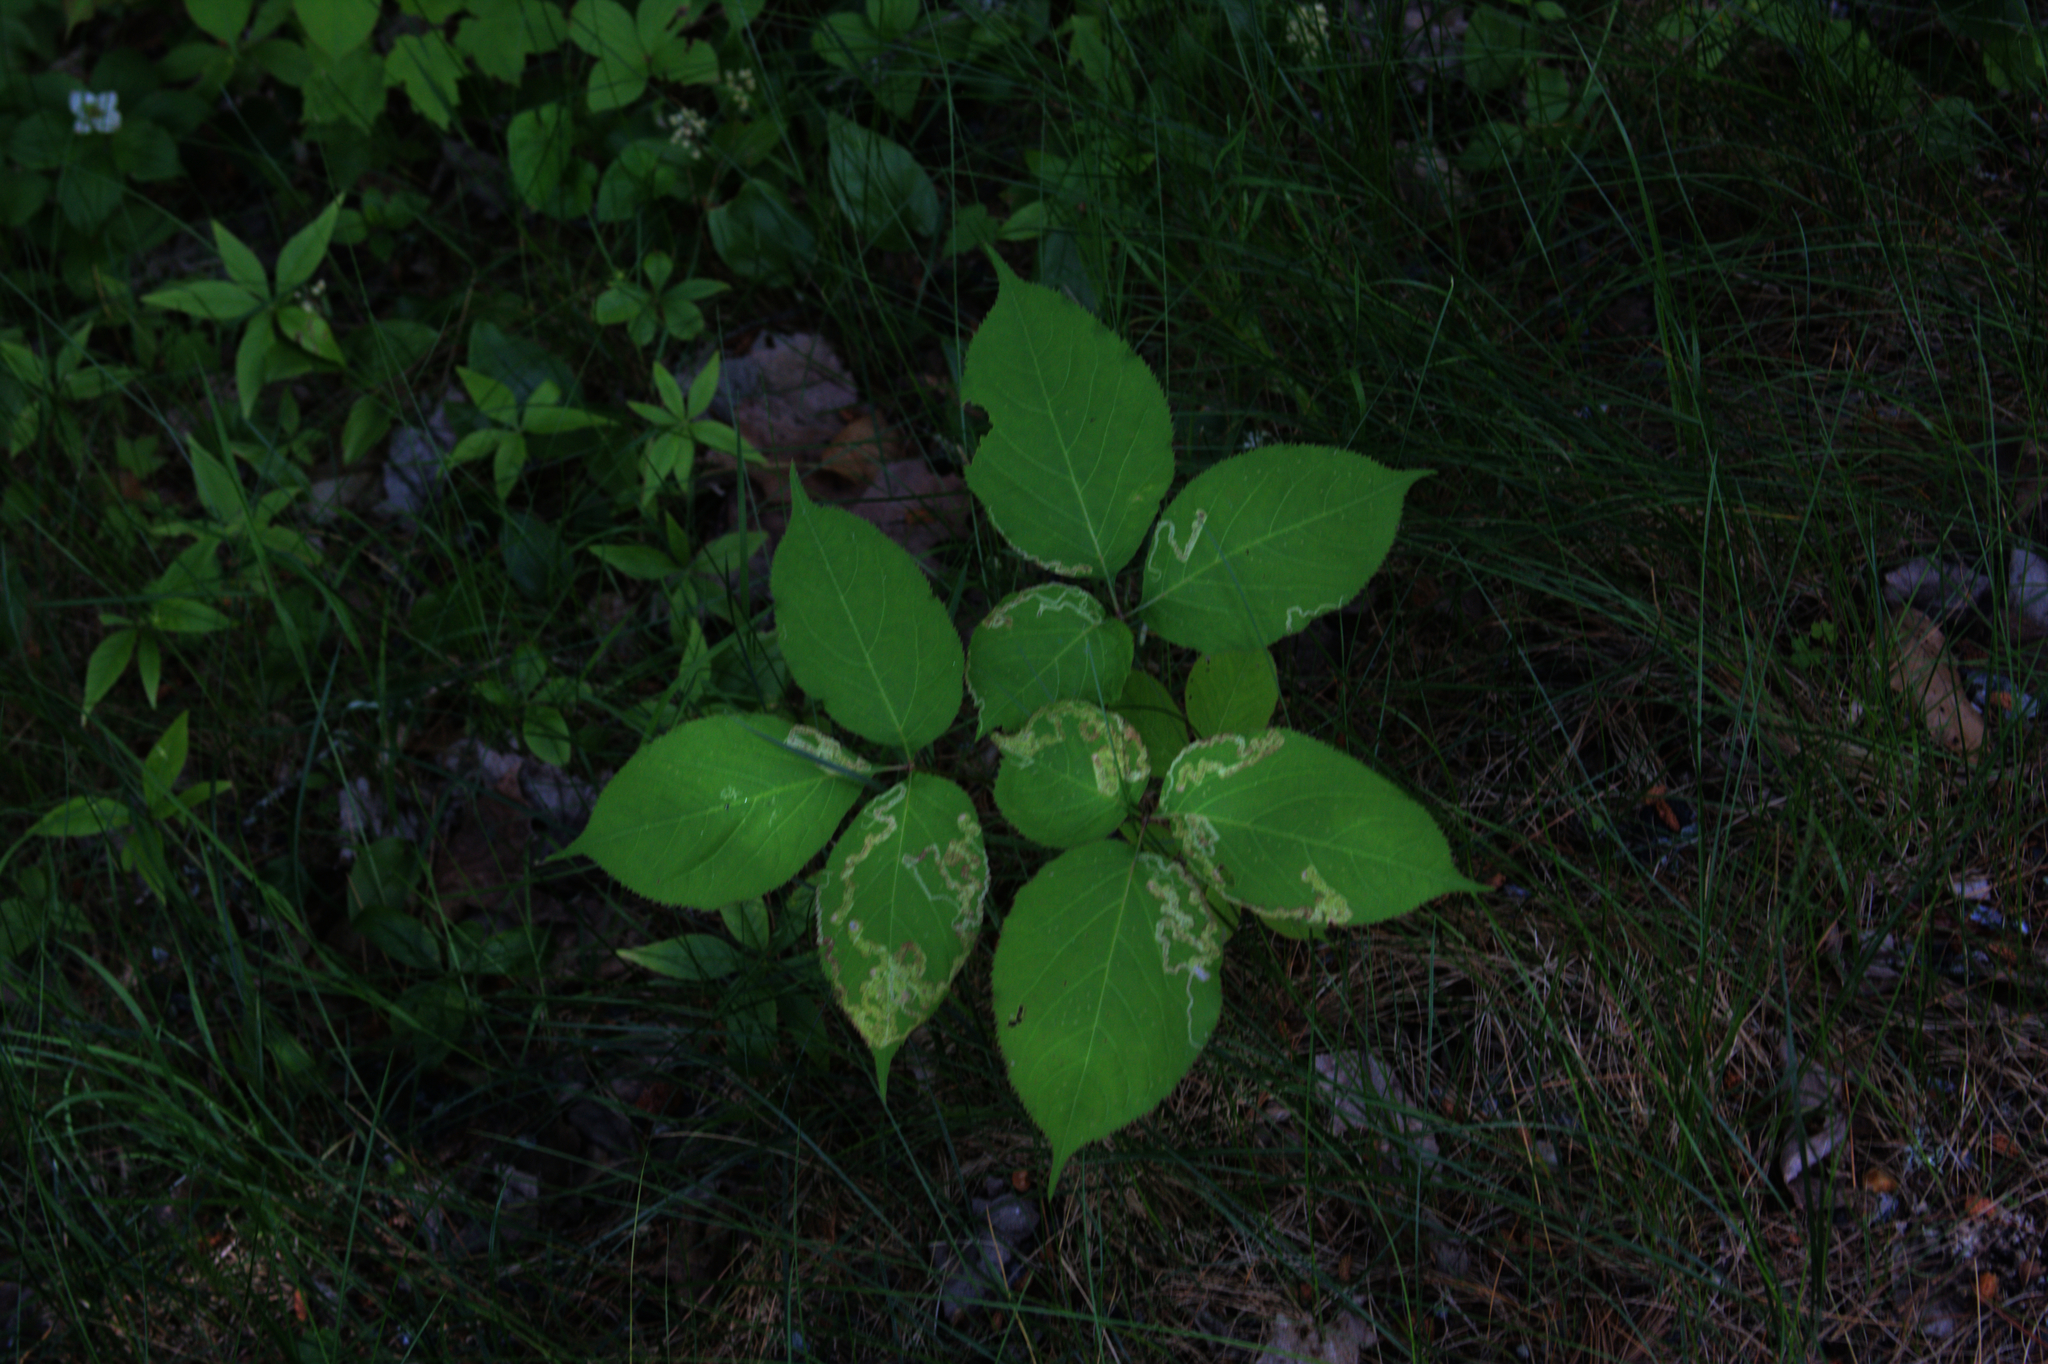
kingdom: Plantae
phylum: Tracheophyta
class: Magnoliopsida
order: Apiales
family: Araliaceae
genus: Aralia
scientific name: Aralia nudicaulis
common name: Wild sarsaparilla
